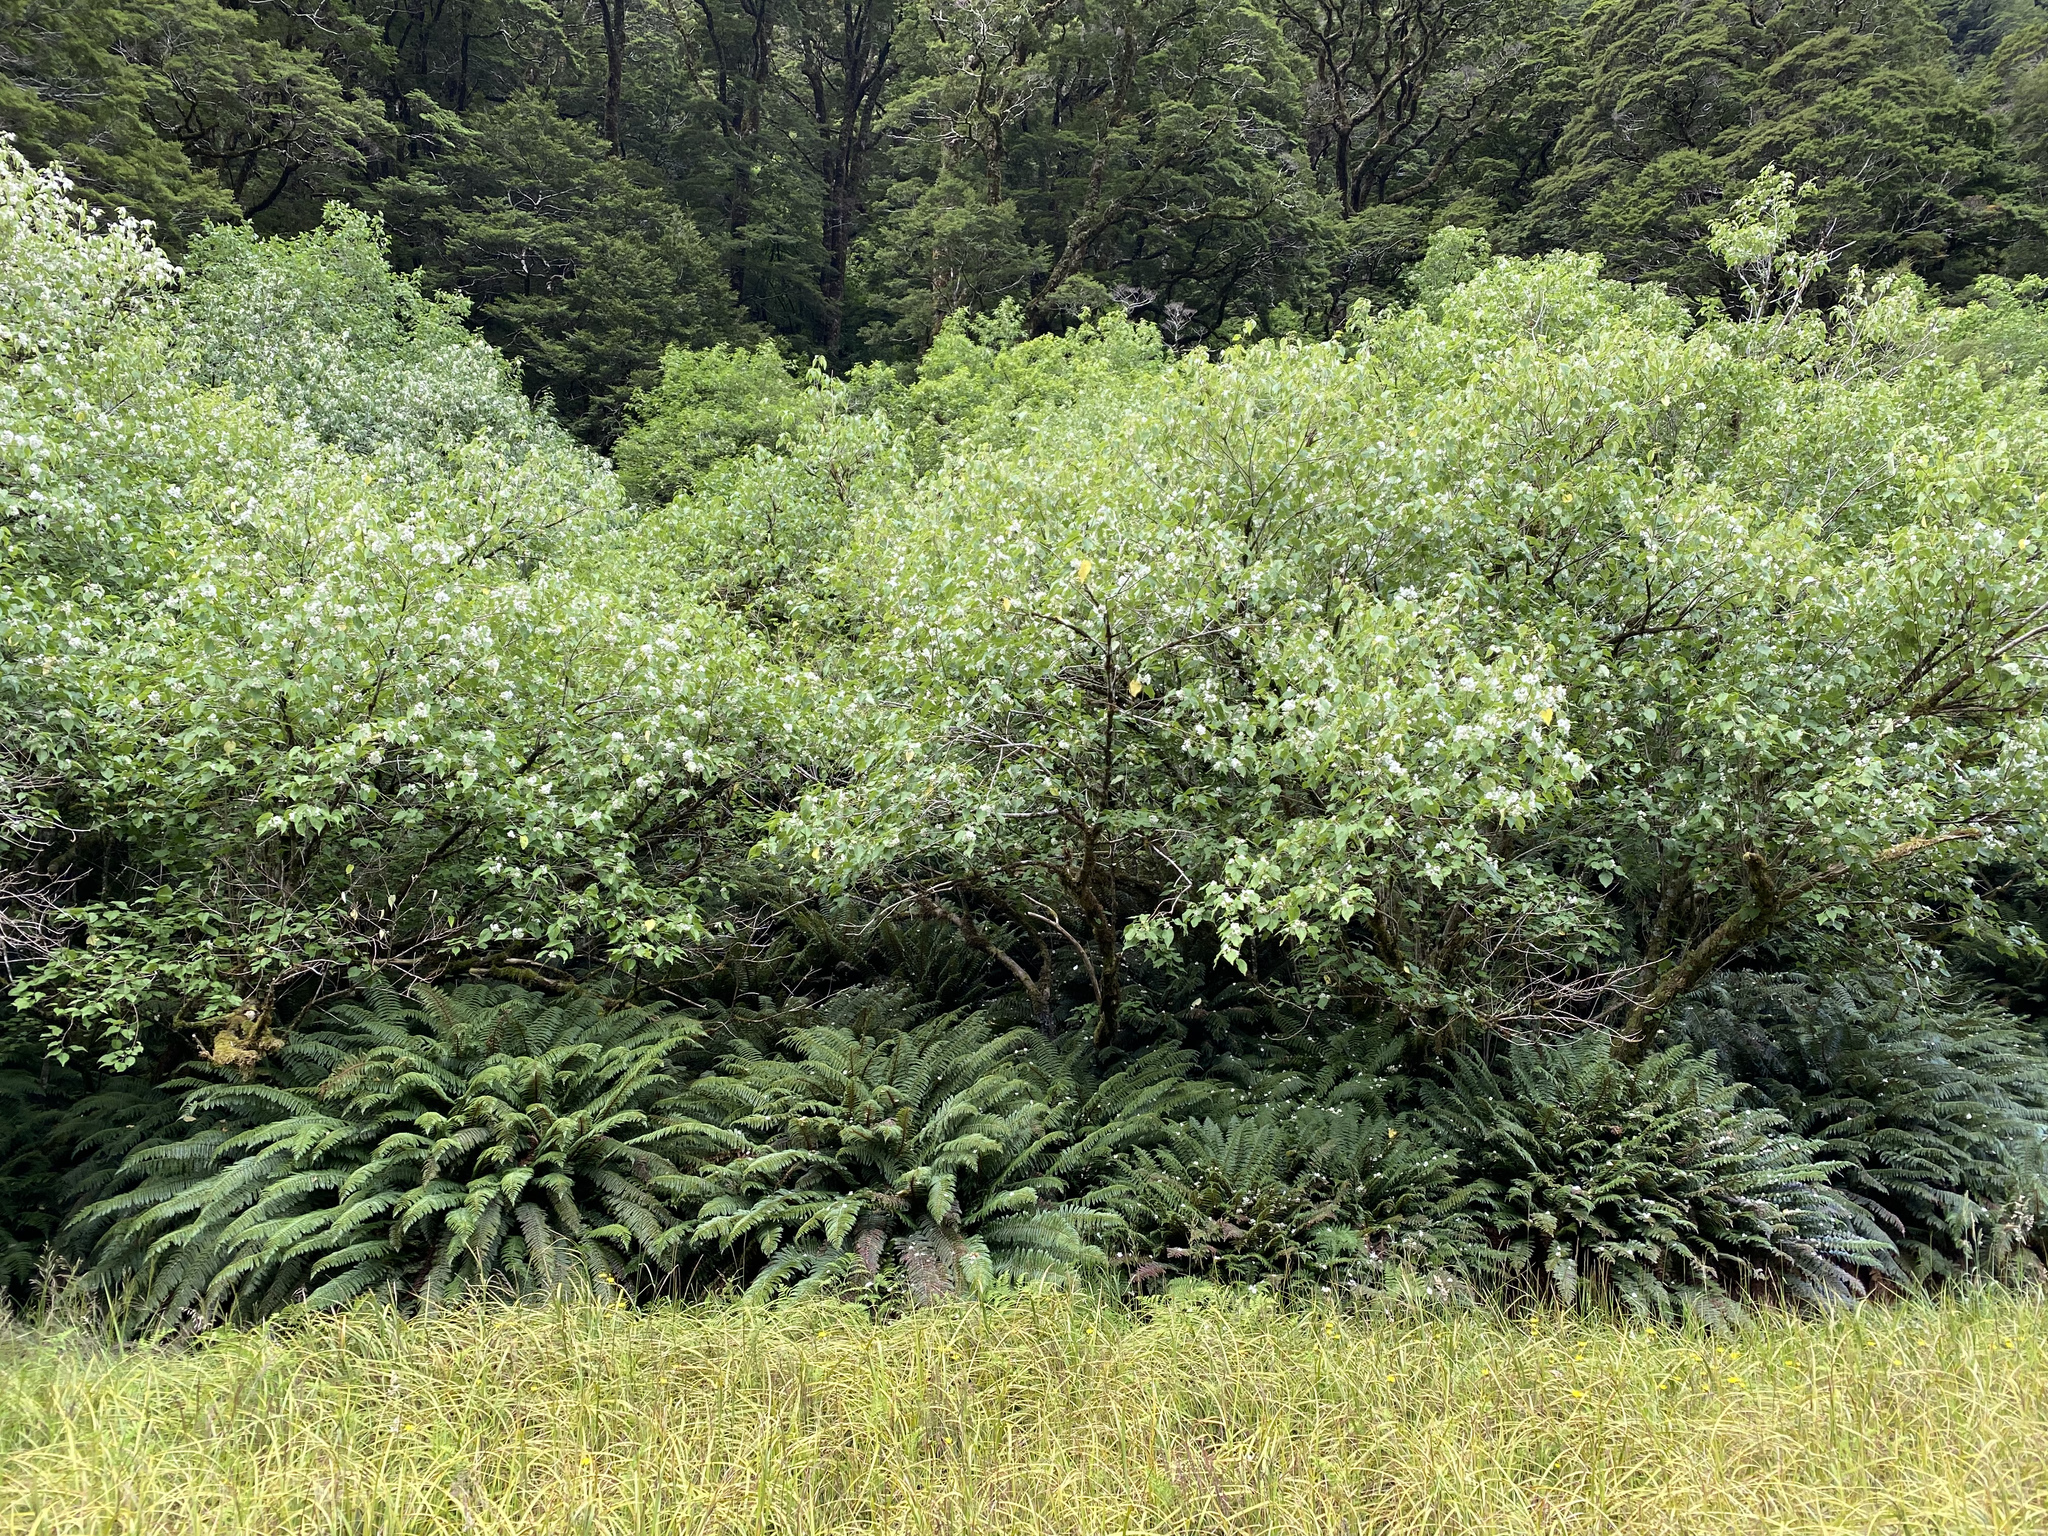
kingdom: Plantae
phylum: Tracheophyta
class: Magnoliopsida
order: Malvales
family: Malvaceae
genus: Hoheria
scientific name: Hoheria glabrata
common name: Mountain-ribbon
